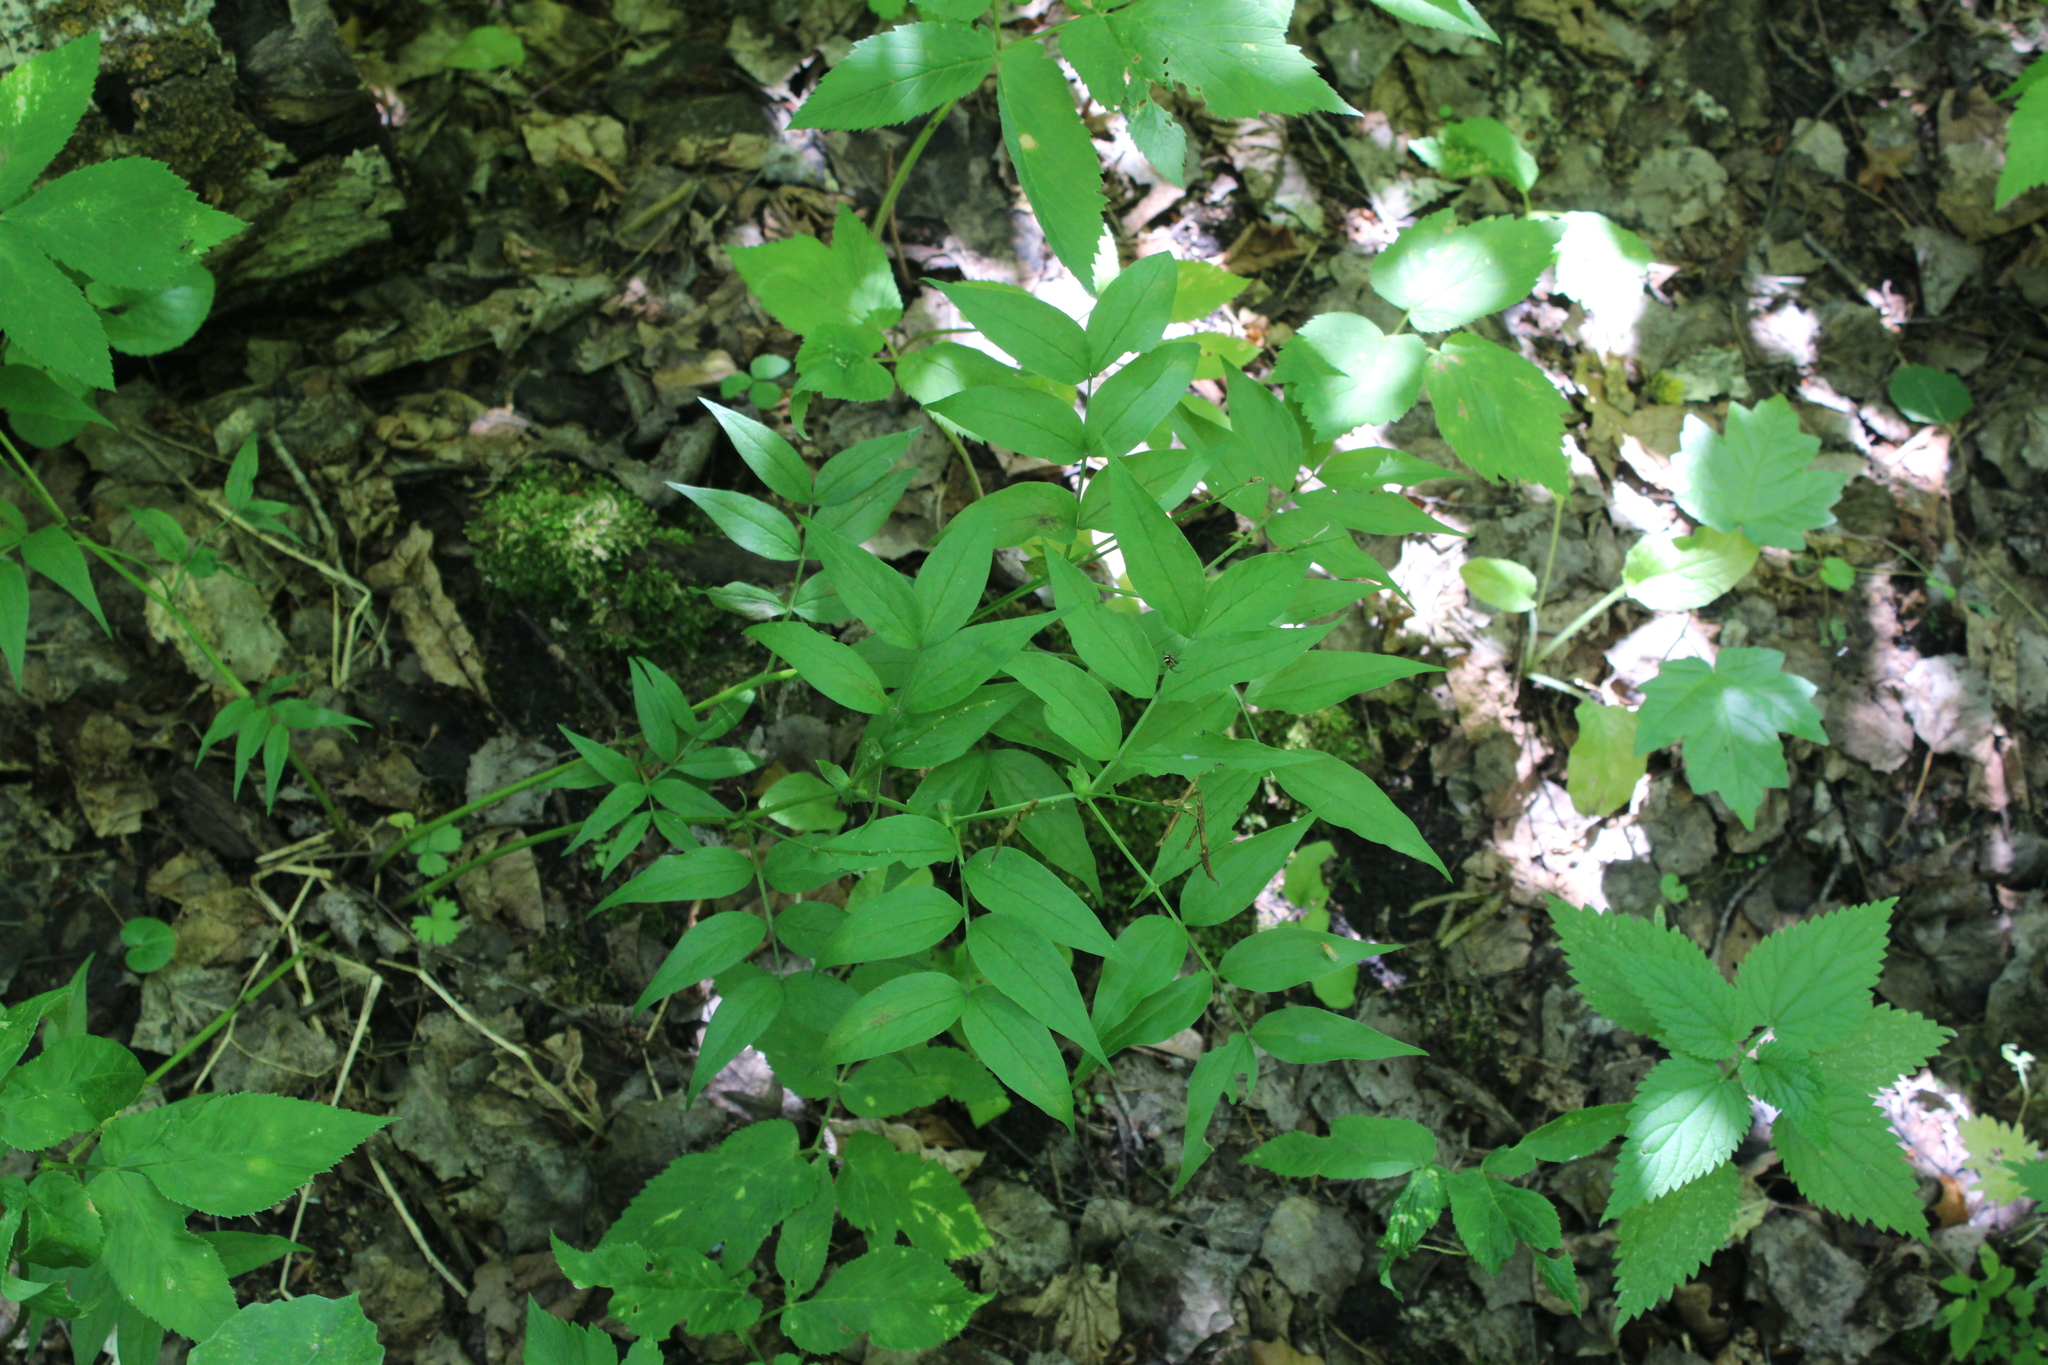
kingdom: Plantae
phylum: Tracheophyta
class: Magnoliopsida
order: Fabales
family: Fabaceae
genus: Lathyrus
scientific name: Lathyrus vernus
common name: Spring pea
